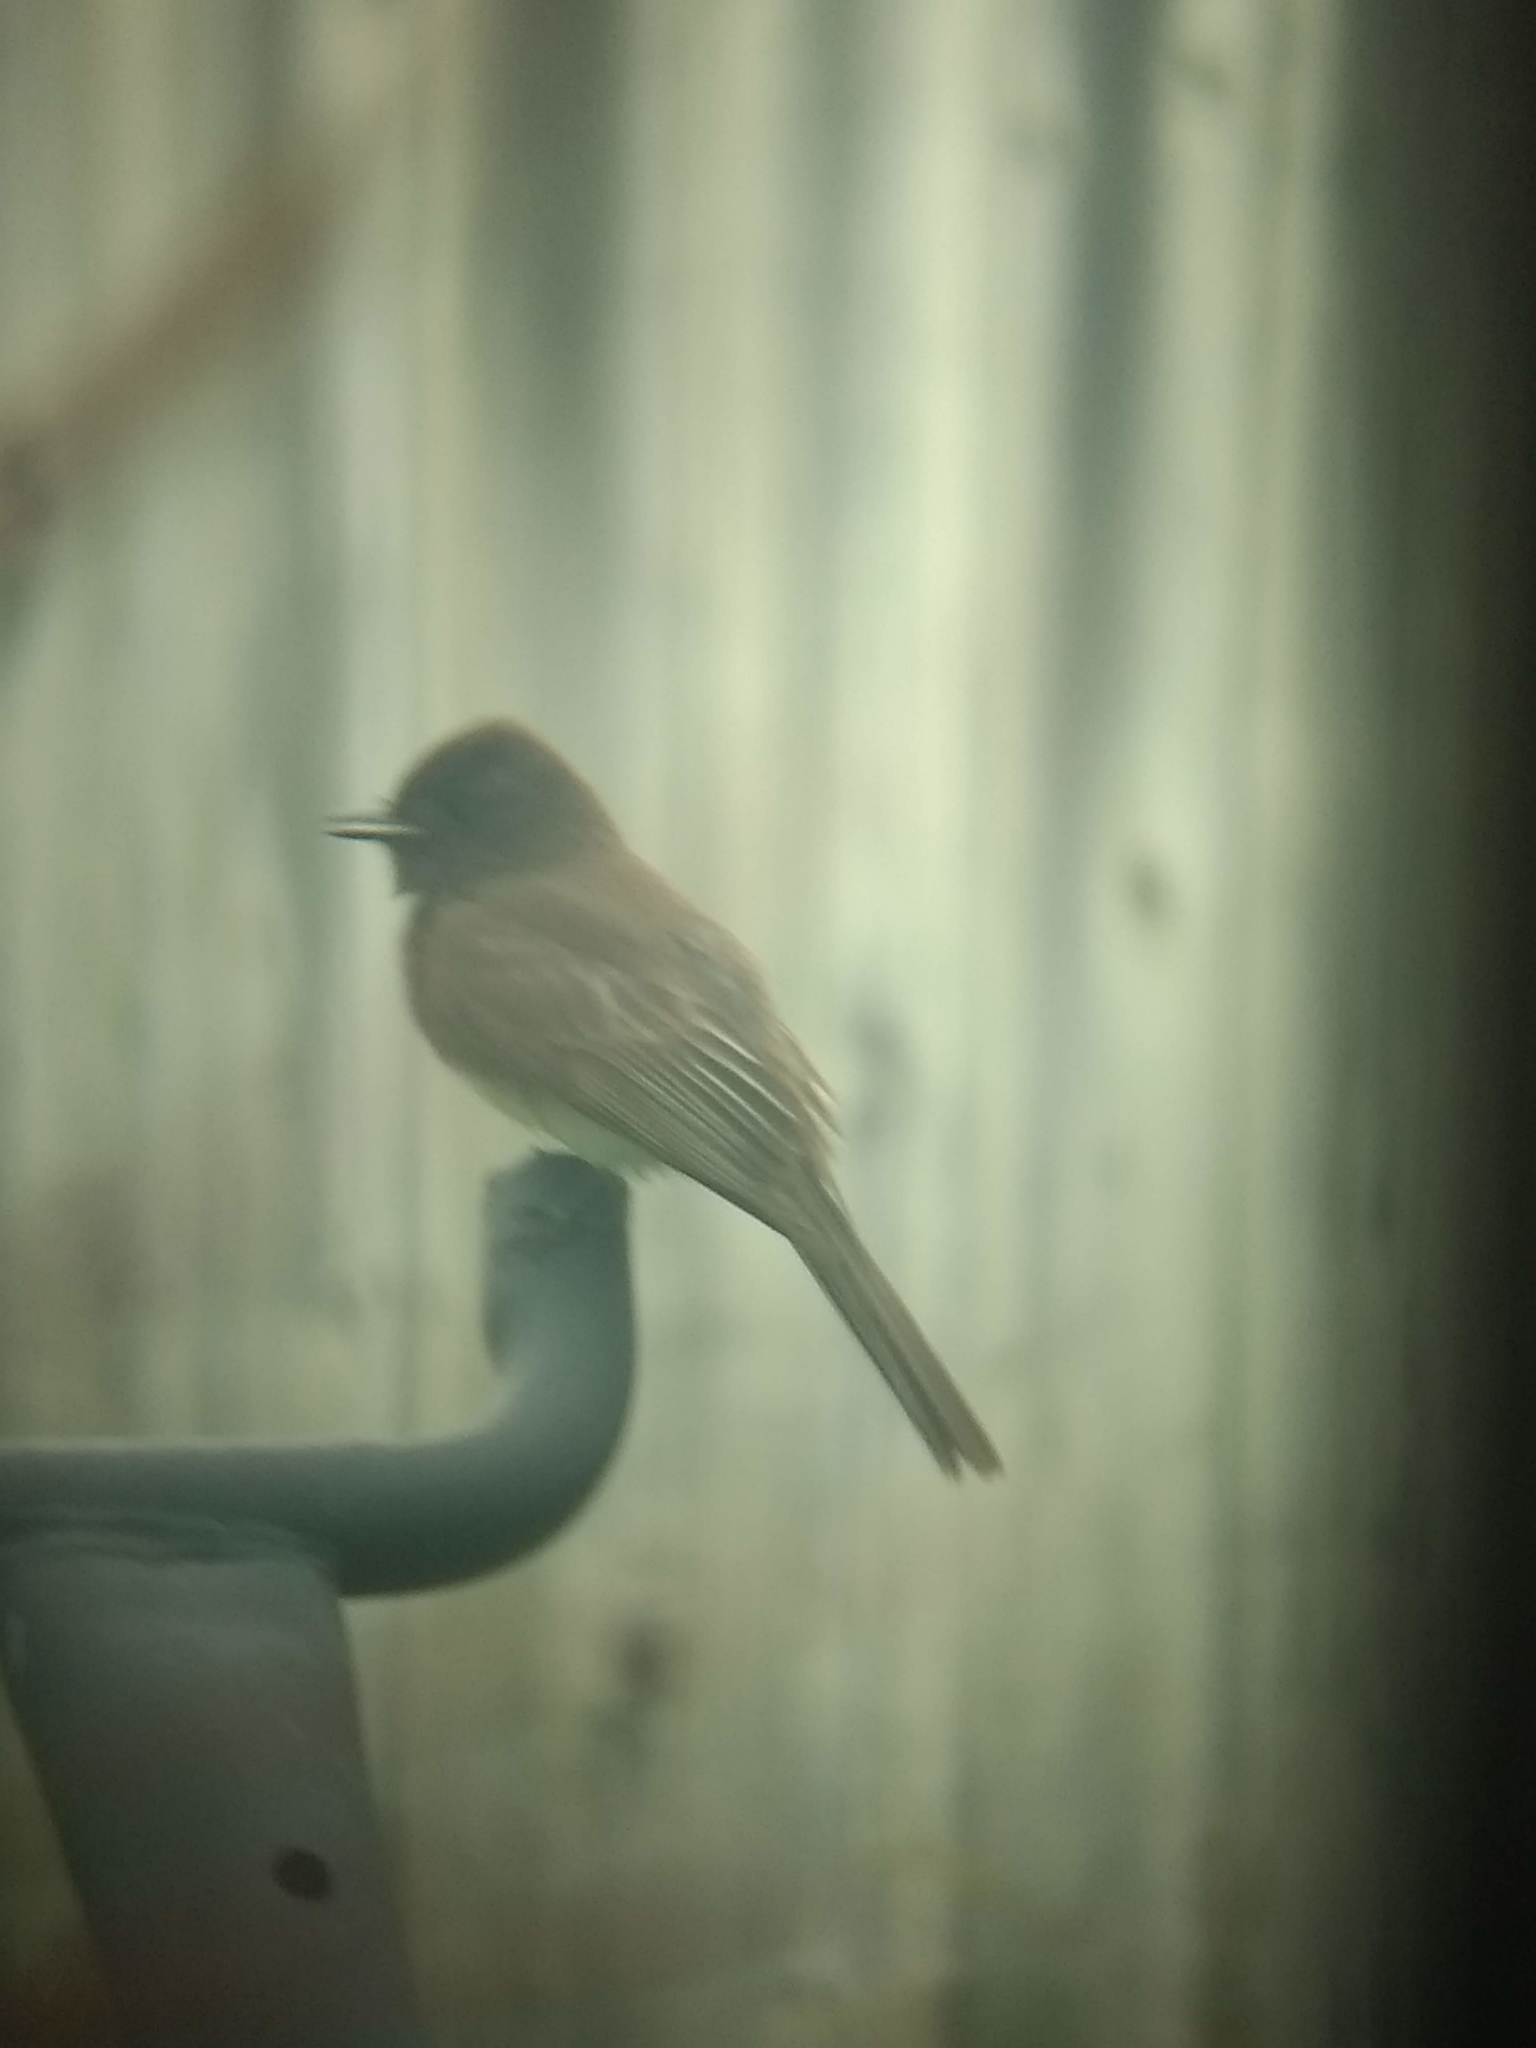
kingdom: Animalia
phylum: Chordata
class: Aves
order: Passeriformes
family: Tyrannidae
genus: Sayornis
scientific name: Sayornis nigricans
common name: Black phoebe
